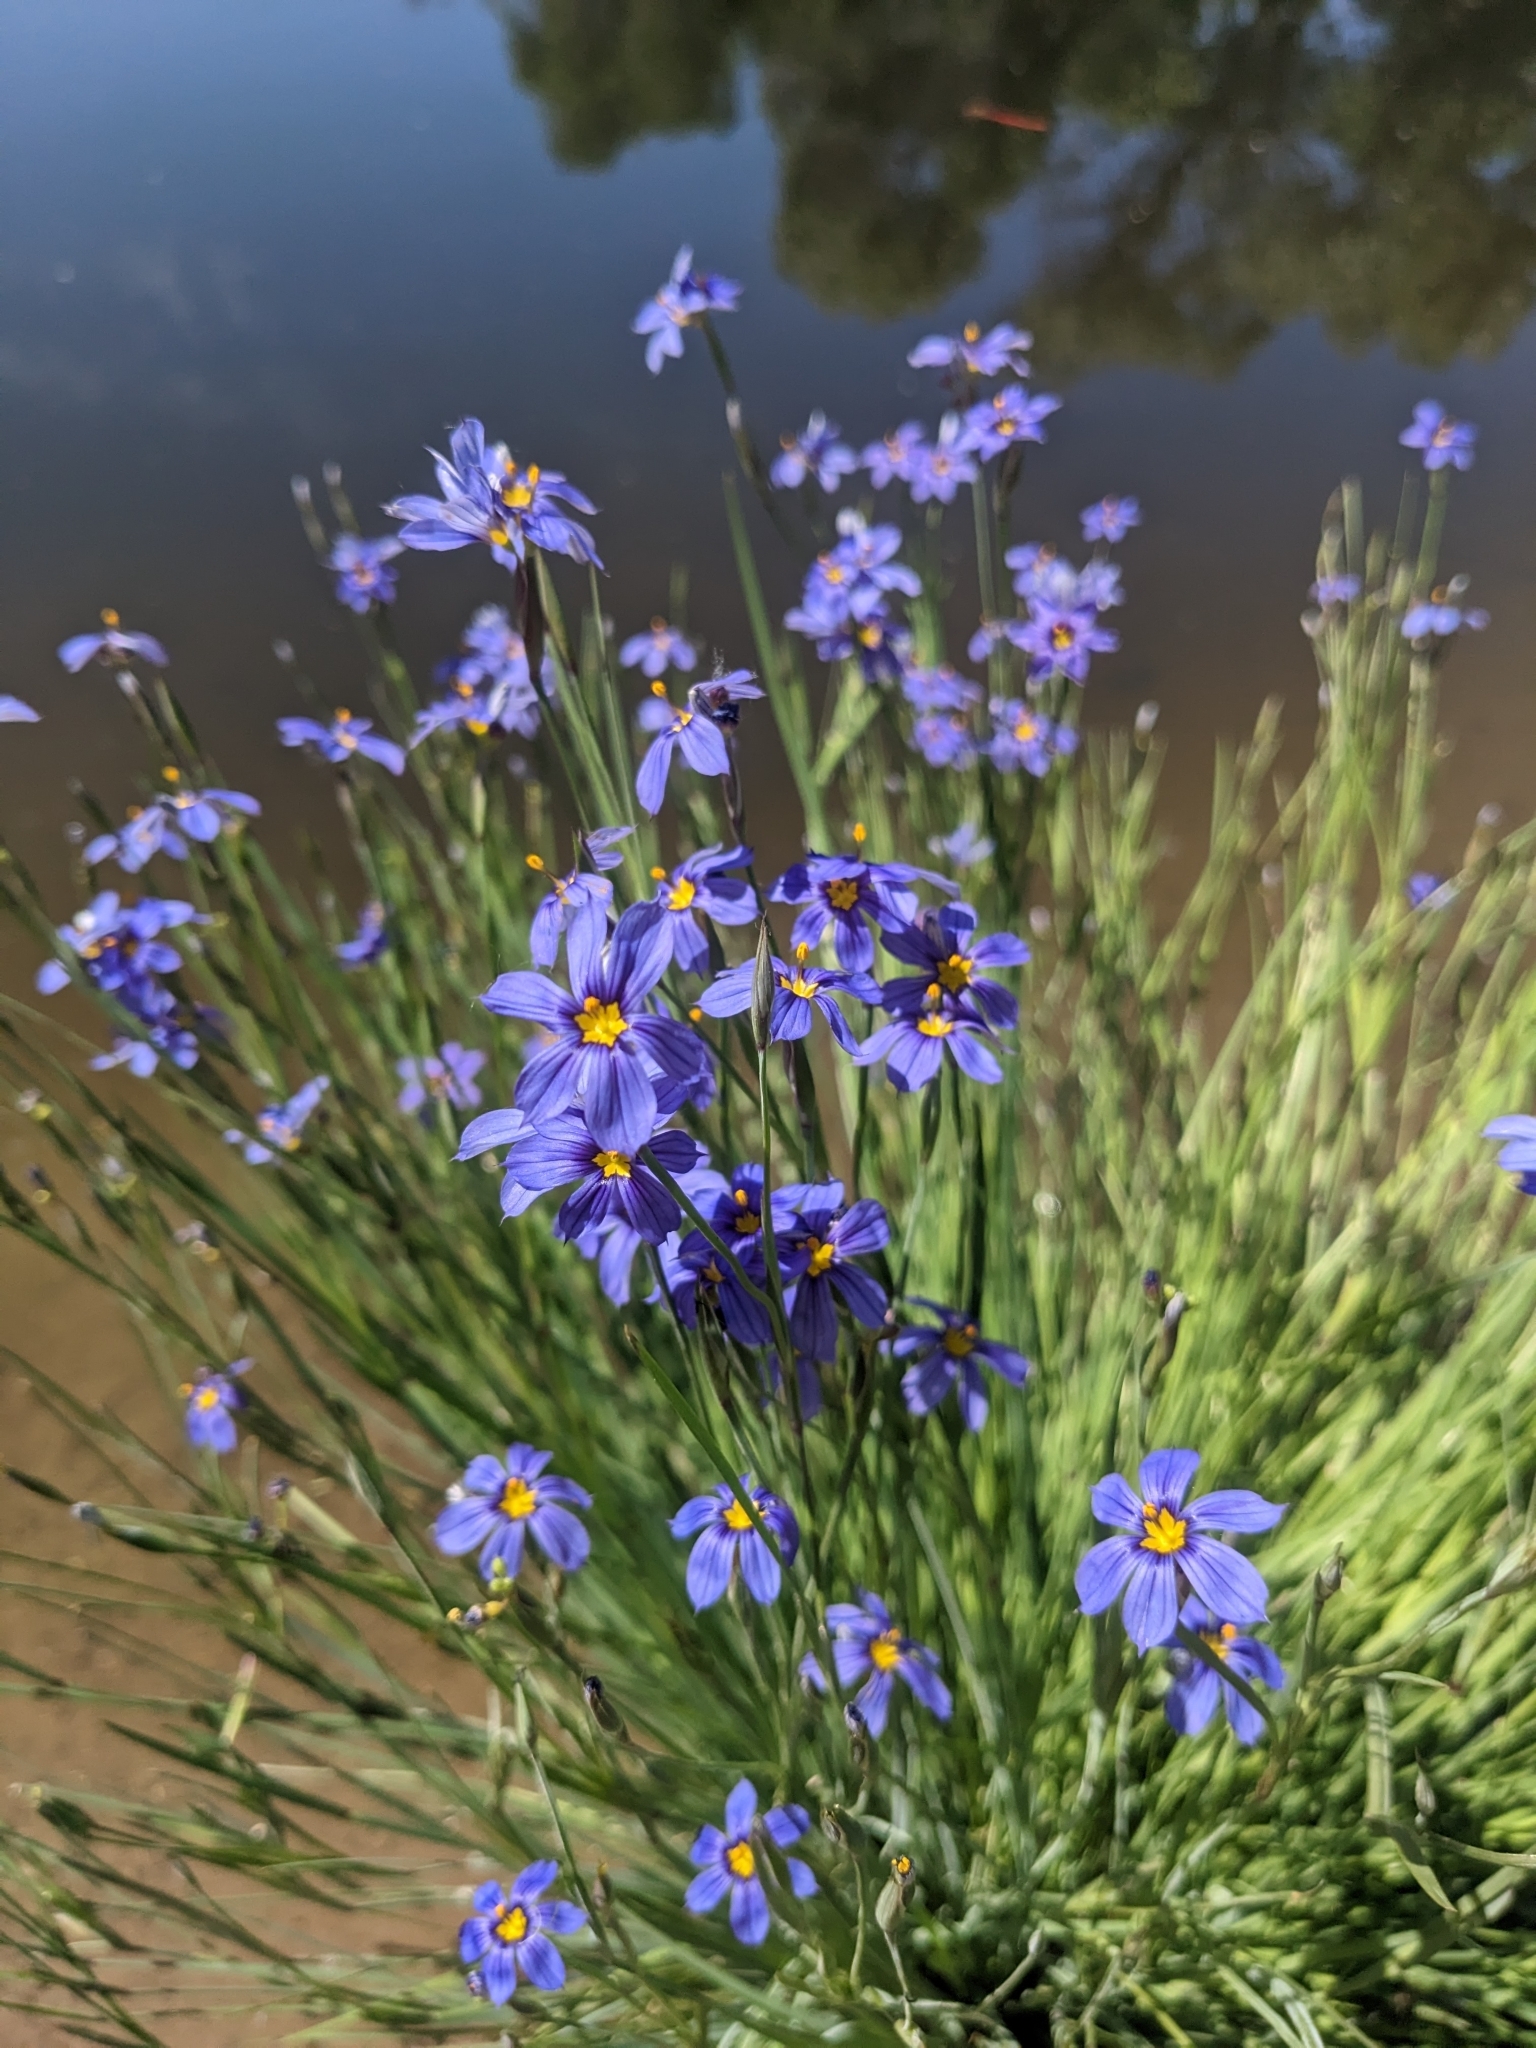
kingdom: Plantae
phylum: Tracheophyta
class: Liliopsida
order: Asparagales
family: Iridaceae
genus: Sisyrinchium
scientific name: Sisyrinchium demissum
